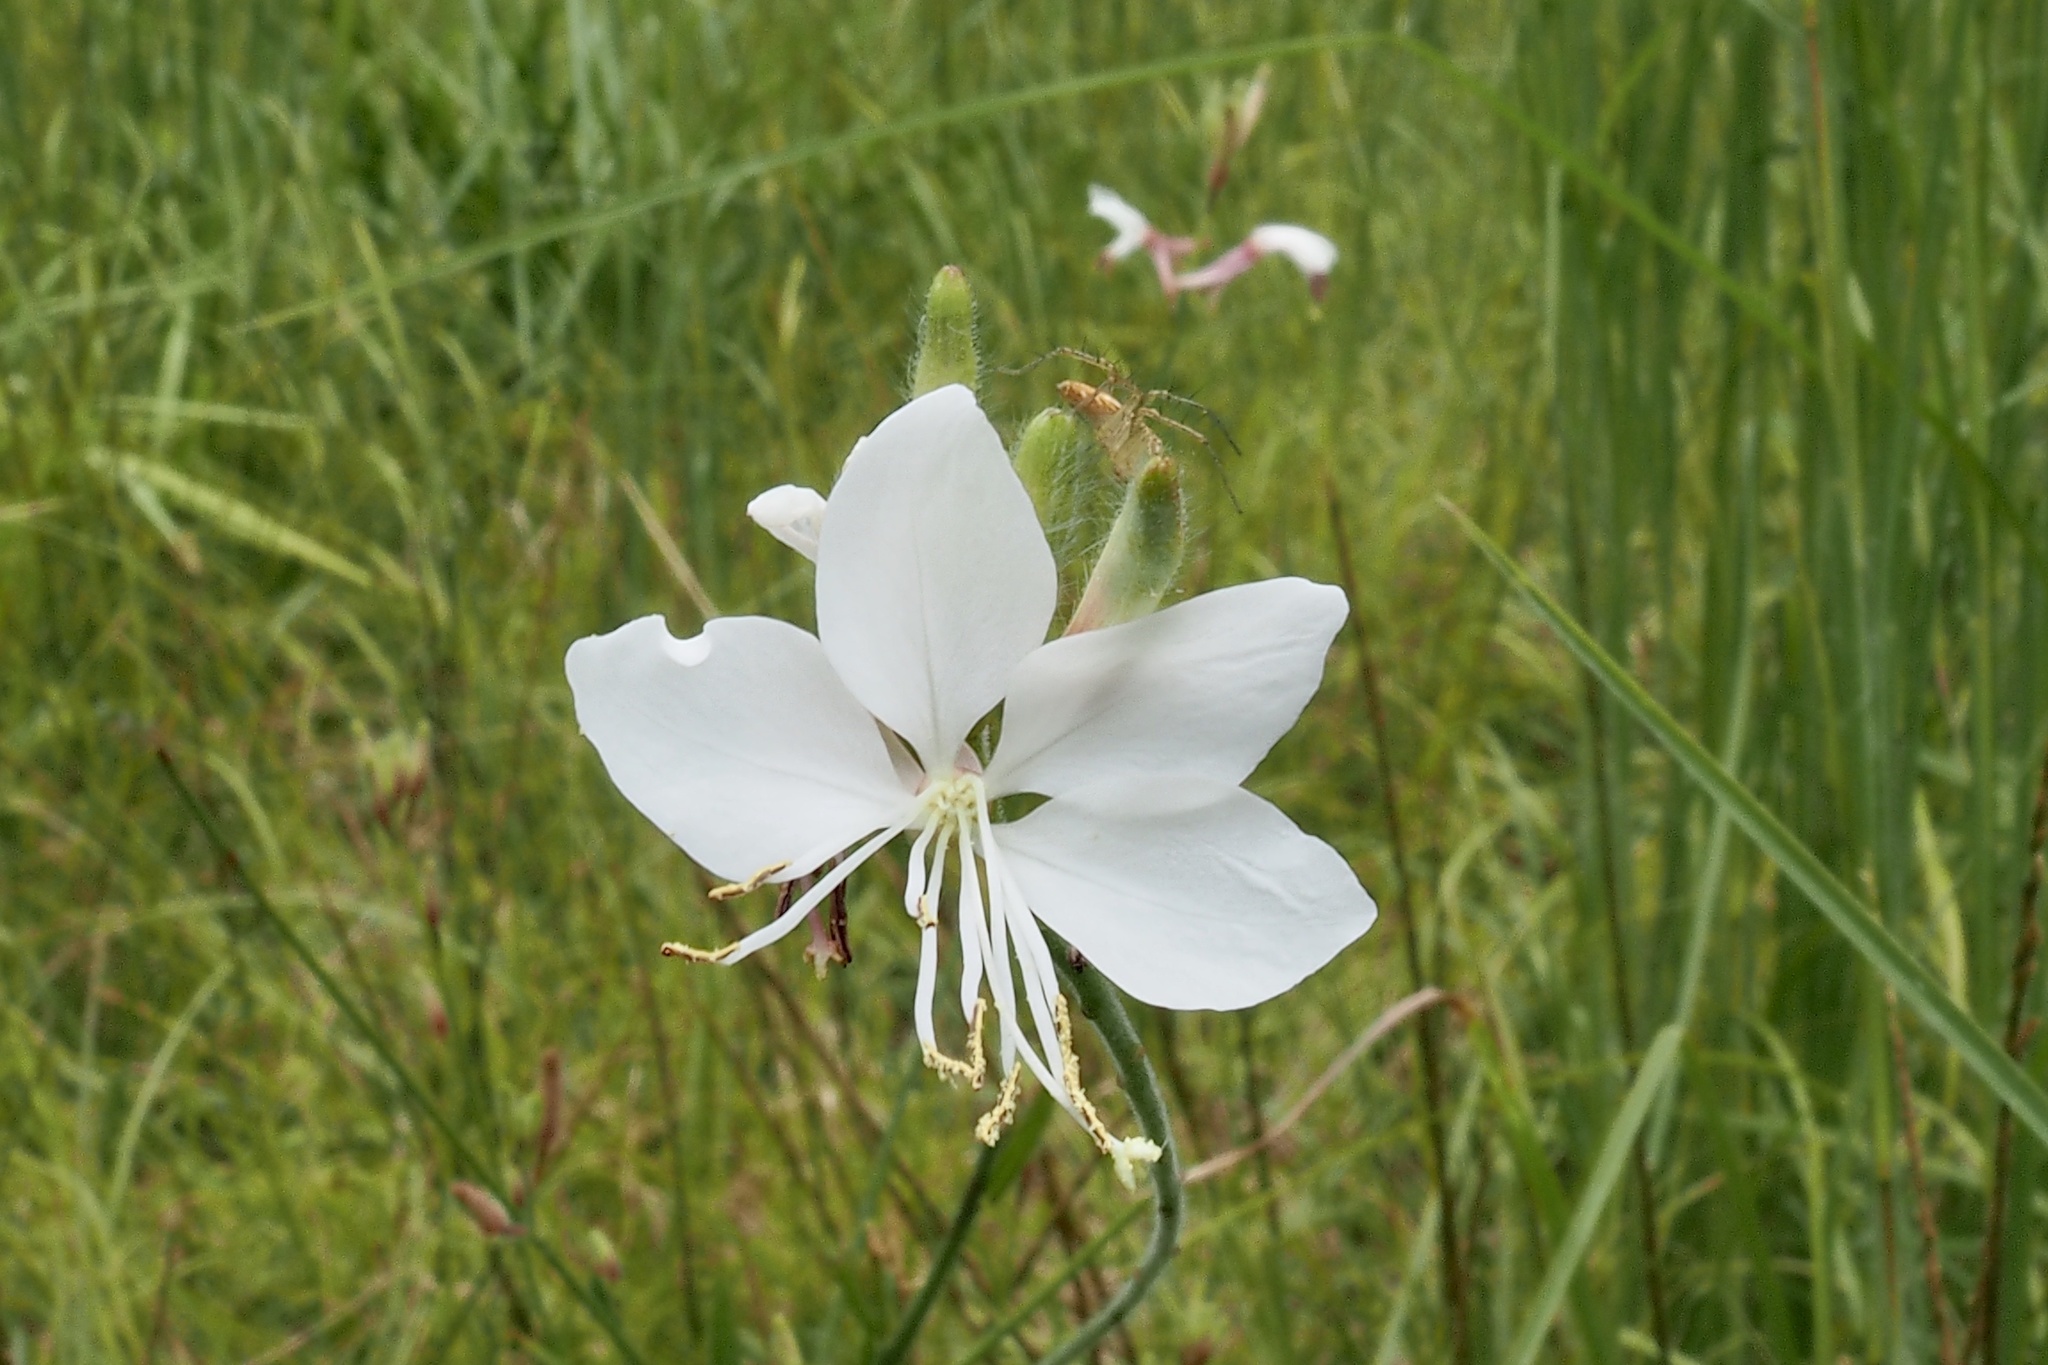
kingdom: Plantae
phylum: Tracheophyta
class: Magnoliopsida
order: Myrtales
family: Onagraceae
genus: Oenothera
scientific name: Oenothera lindheimeri
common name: Lindheimer's beeblossom
